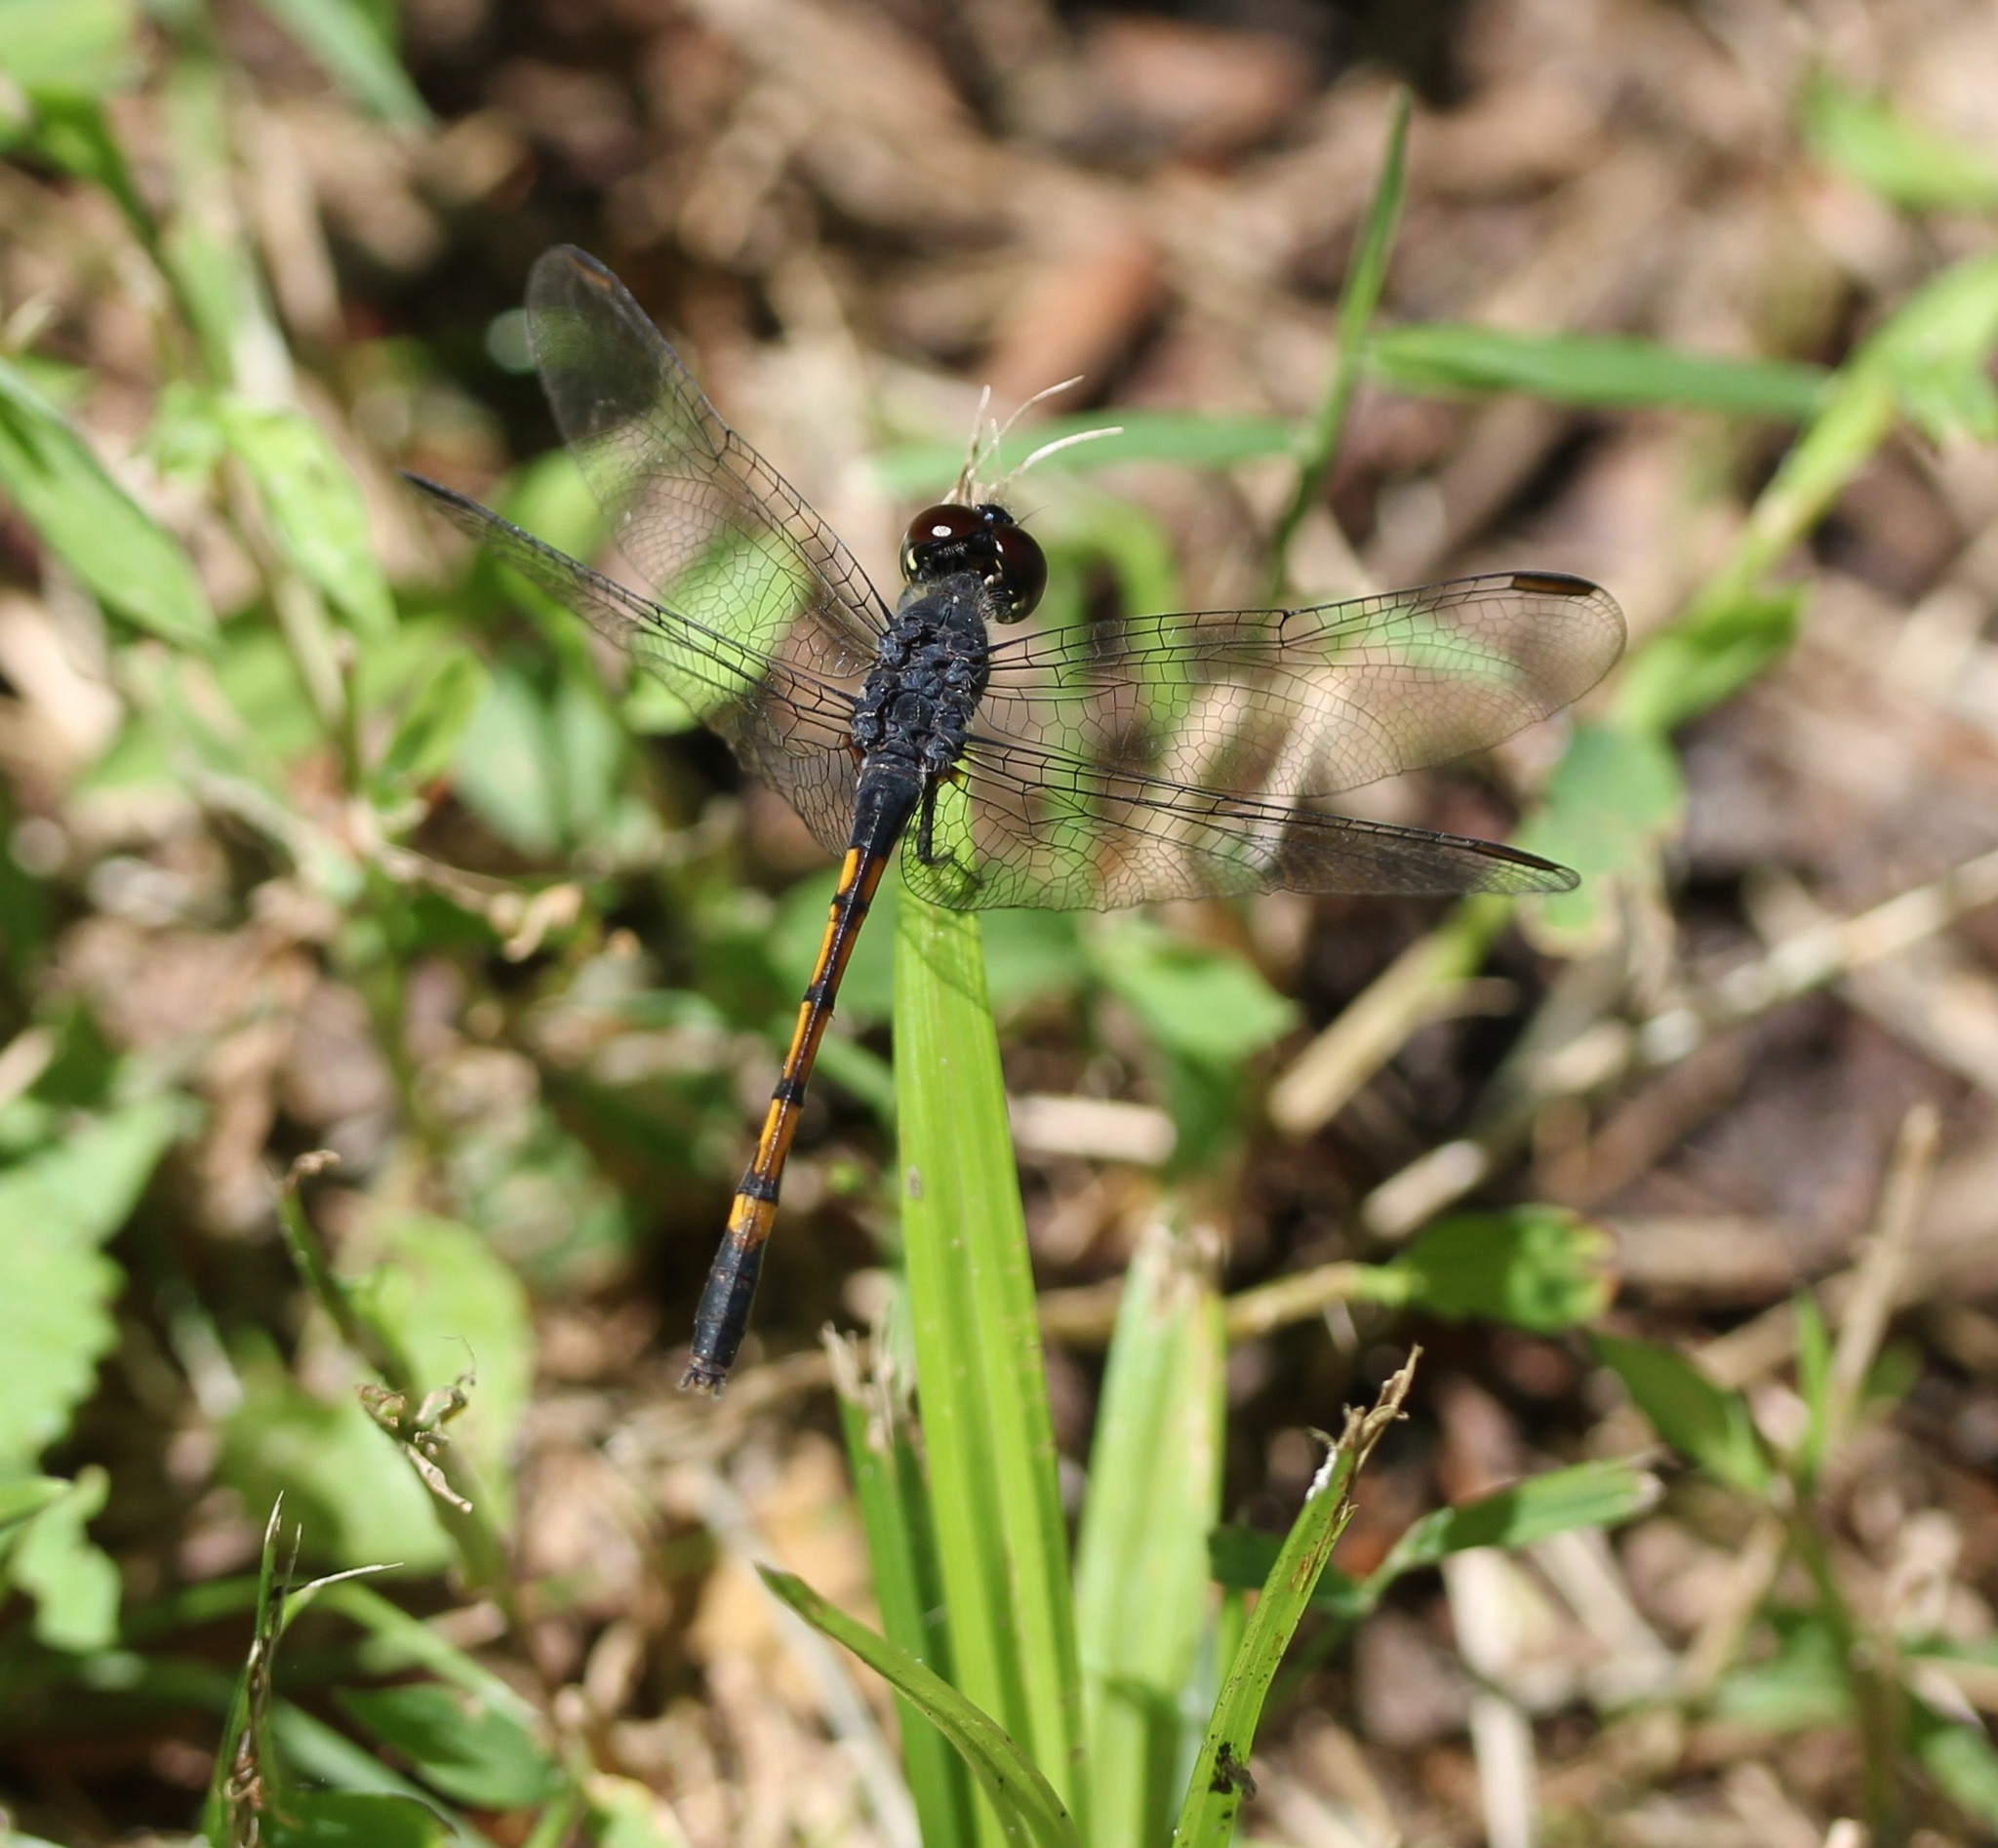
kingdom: Animalia
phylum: Arthropoda
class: Insecta
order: Odonata
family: Libellulidae
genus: Erythrodiplax
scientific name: Erythrodiplax berenice
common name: Seaside dragonlet
